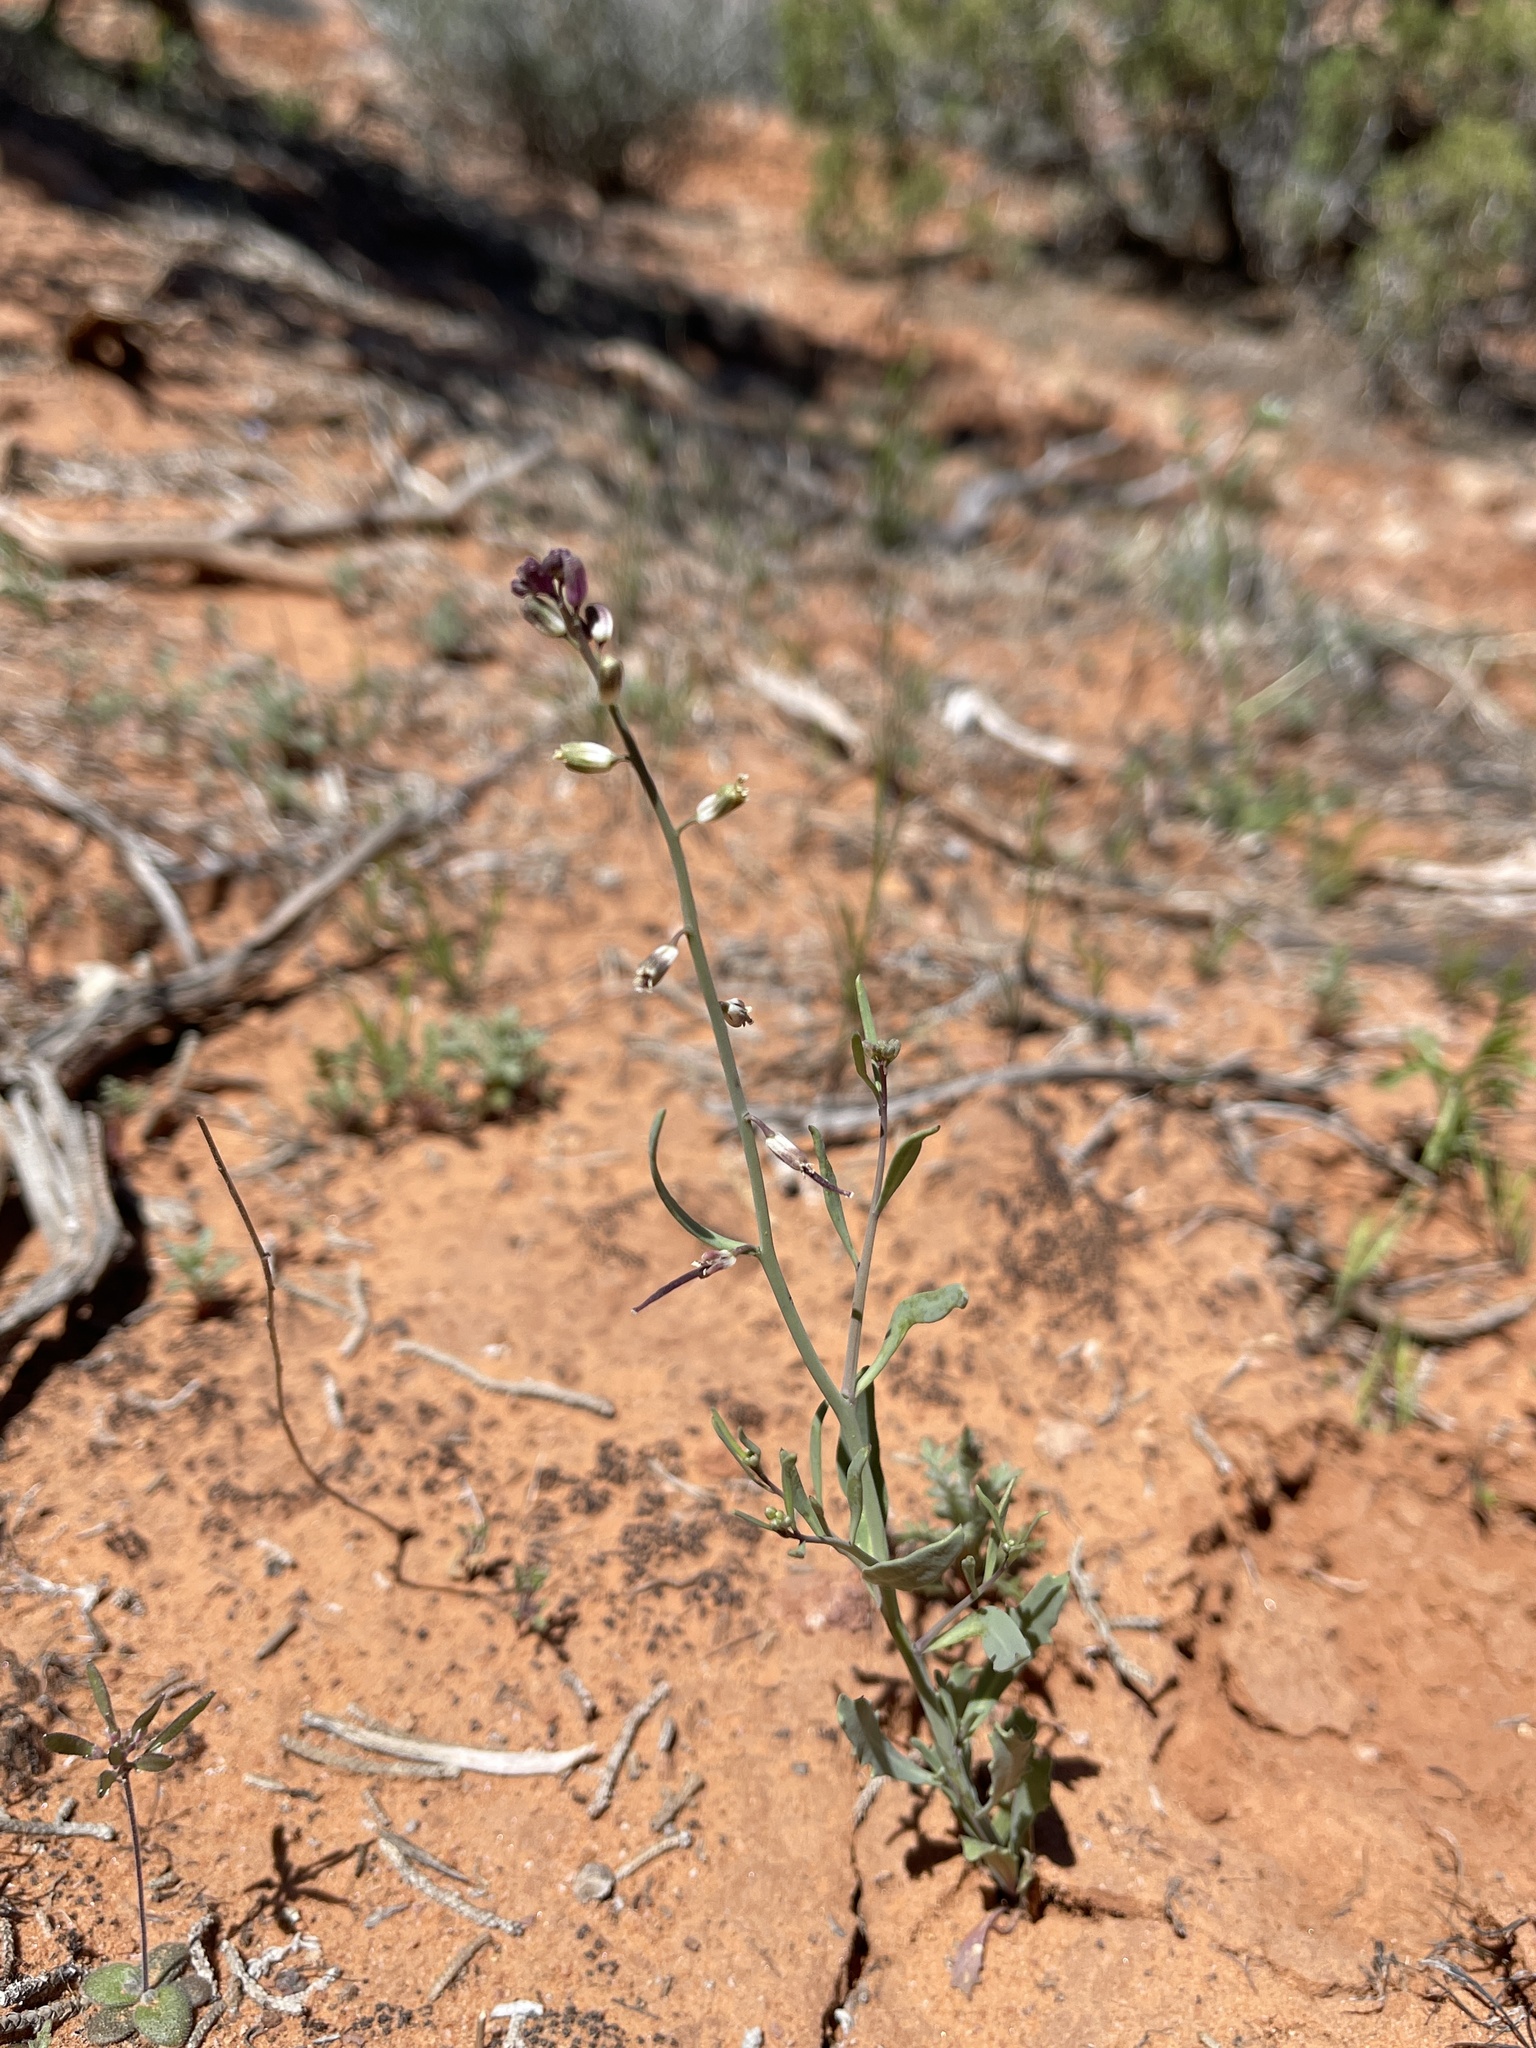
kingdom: Plantae
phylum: Tracheophyta
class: Magnoliopsida
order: Brassicales
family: Brassicaceae
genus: Streptanthus
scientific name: Streptanthus longirostris
